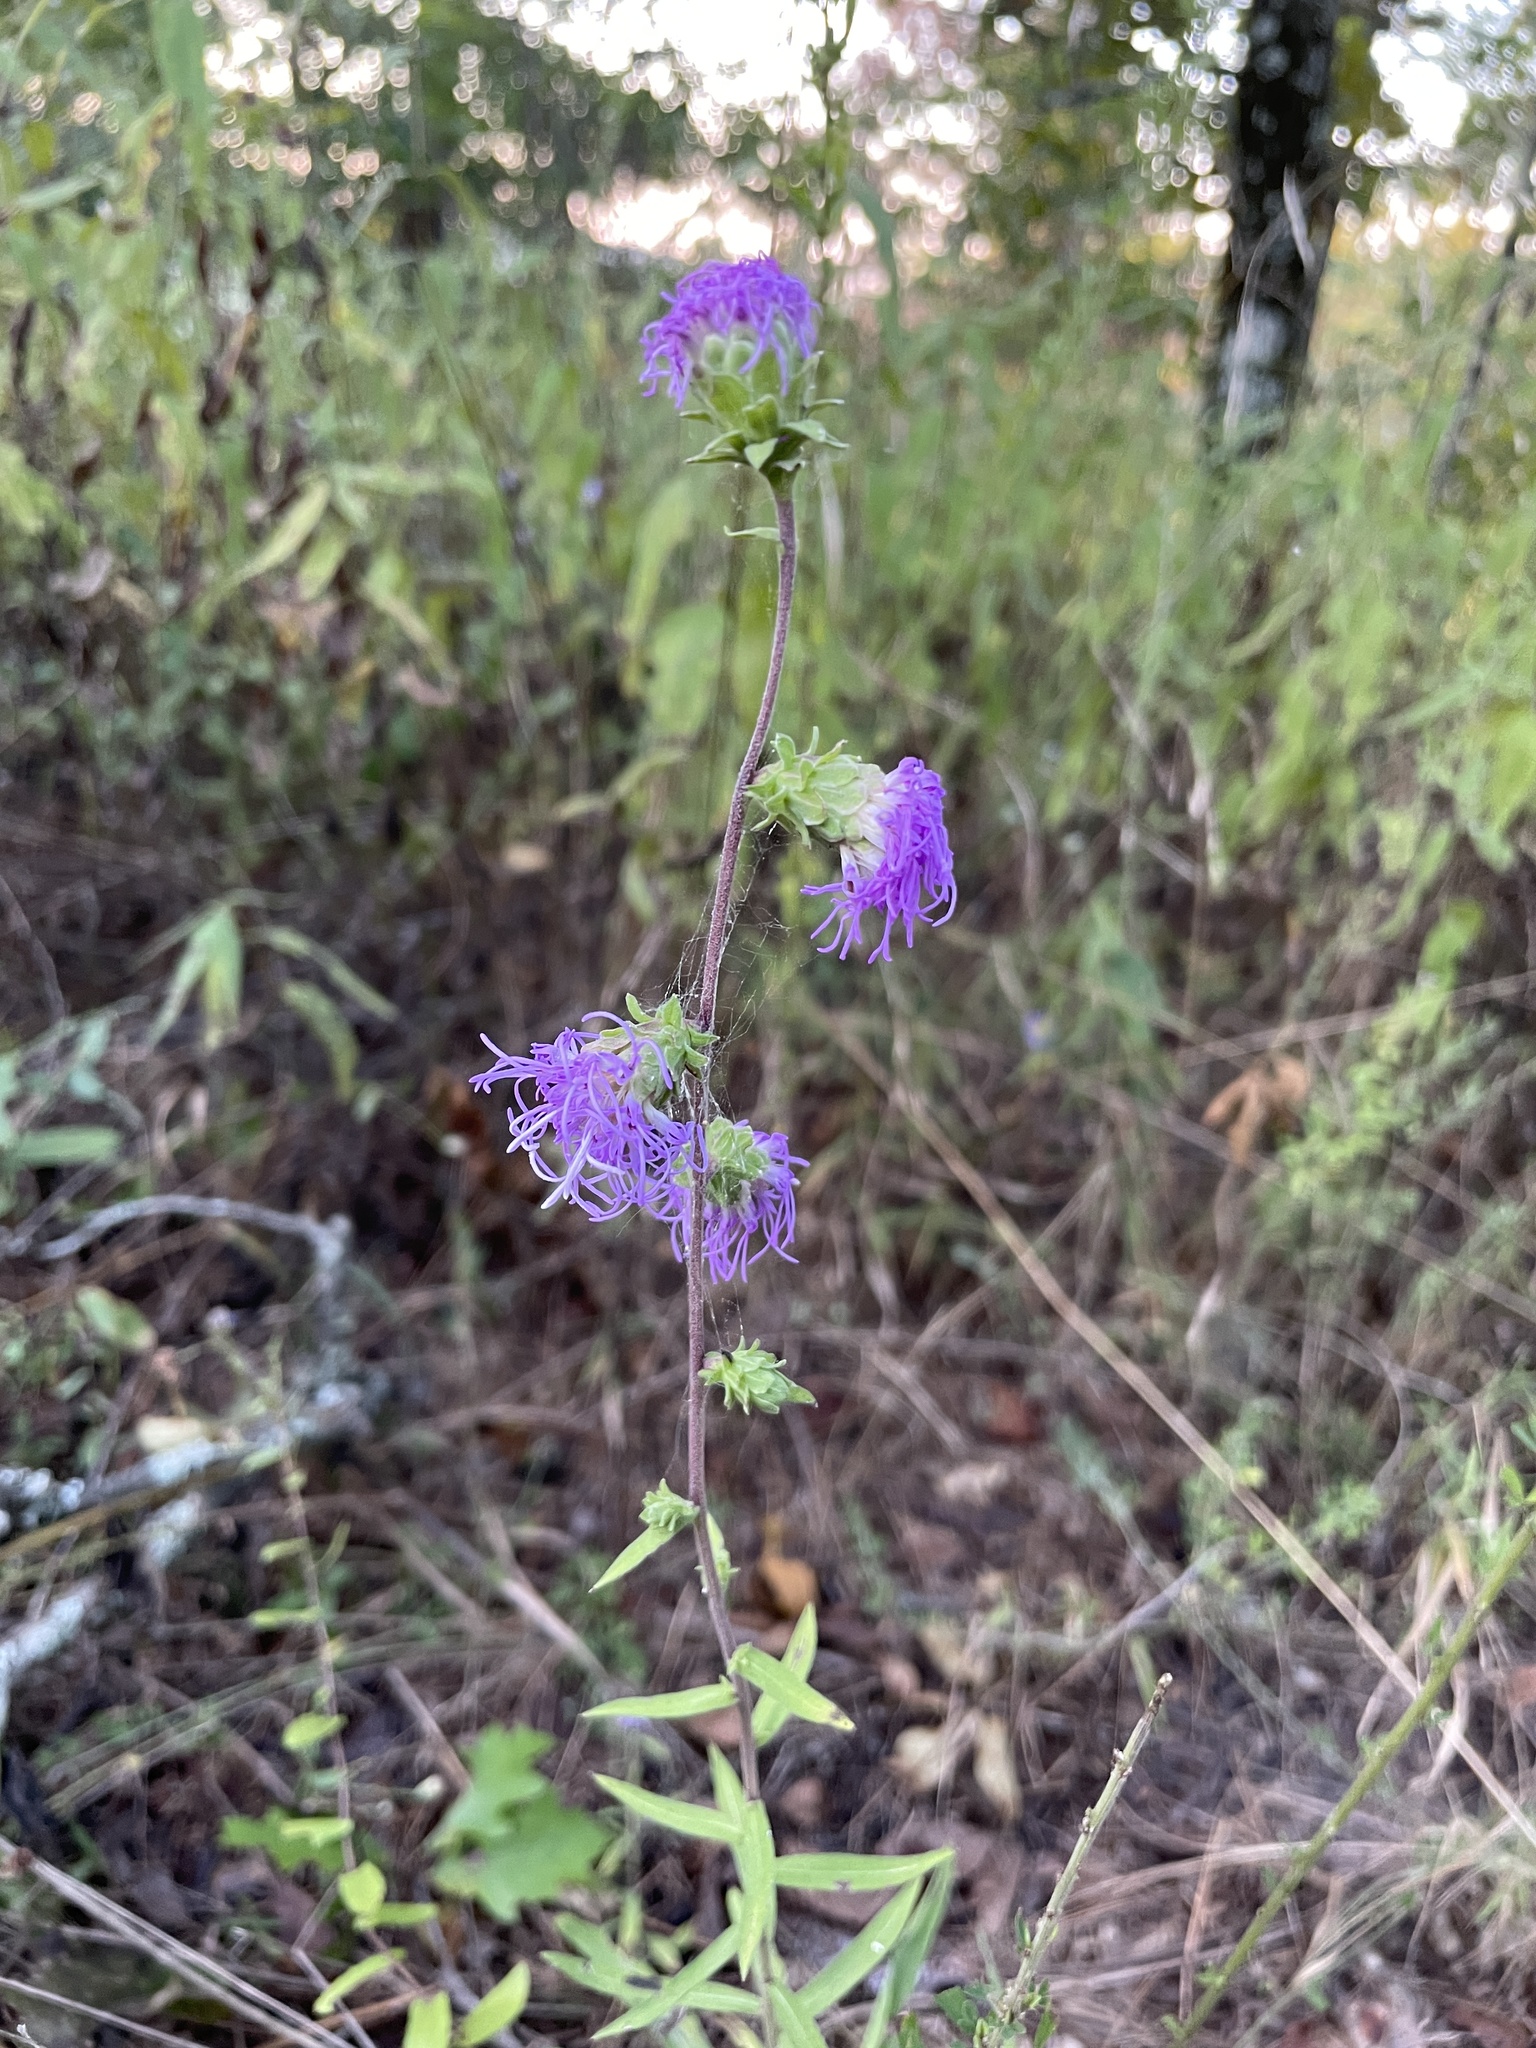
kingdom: Plantae
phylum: Tracheophyta
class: Magnoliopsida
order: Asterales
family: Asteraceae
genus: Liatris
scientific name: Liatris squarrulosa
